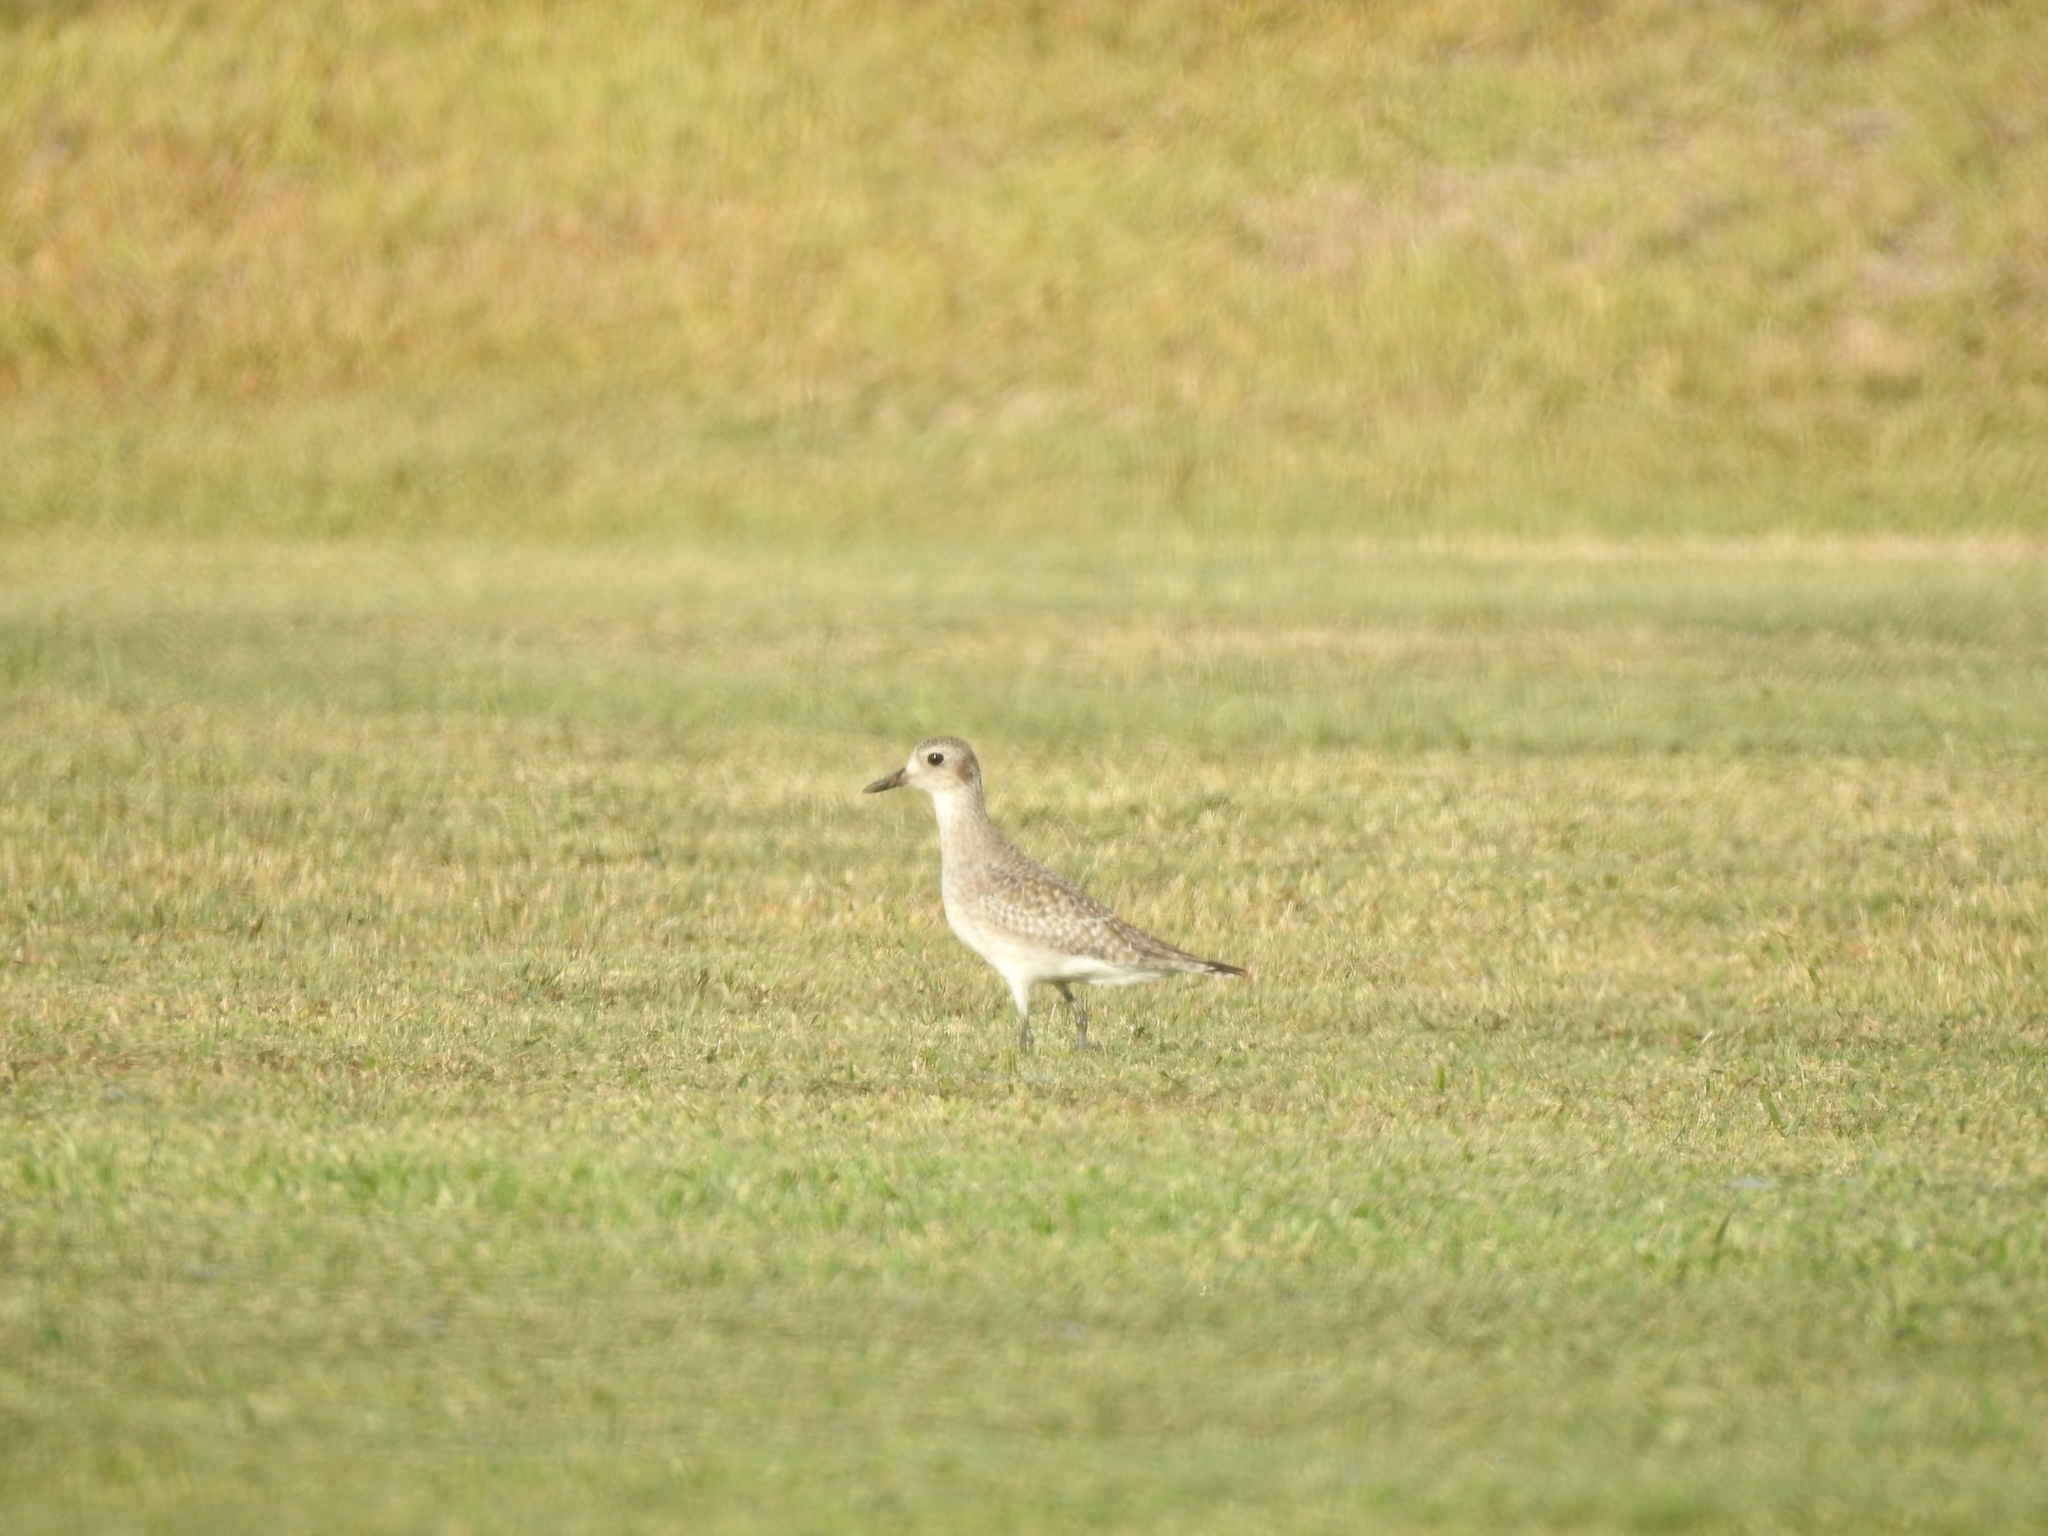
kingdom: Animalia
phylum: Chordata
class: Aves
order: Charadriiformes
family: Charadriidae
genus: Pluvialis
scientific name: Pluvialis squatarola
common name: Grey plover
